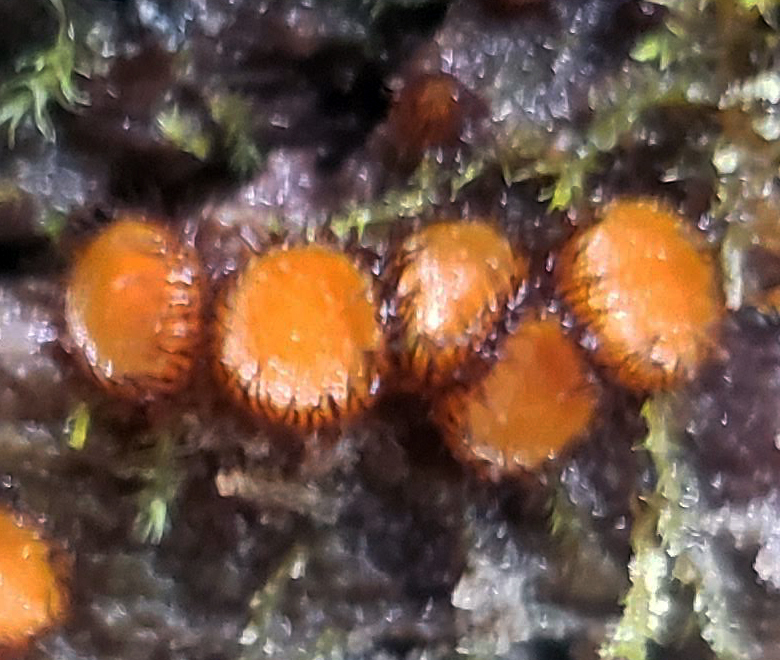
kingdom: Fungi
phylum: Ascomycota
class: Pezizomycetes
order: Pezizales
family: Pyronemataceae
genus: Scutellinia
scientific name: Scutellinia
